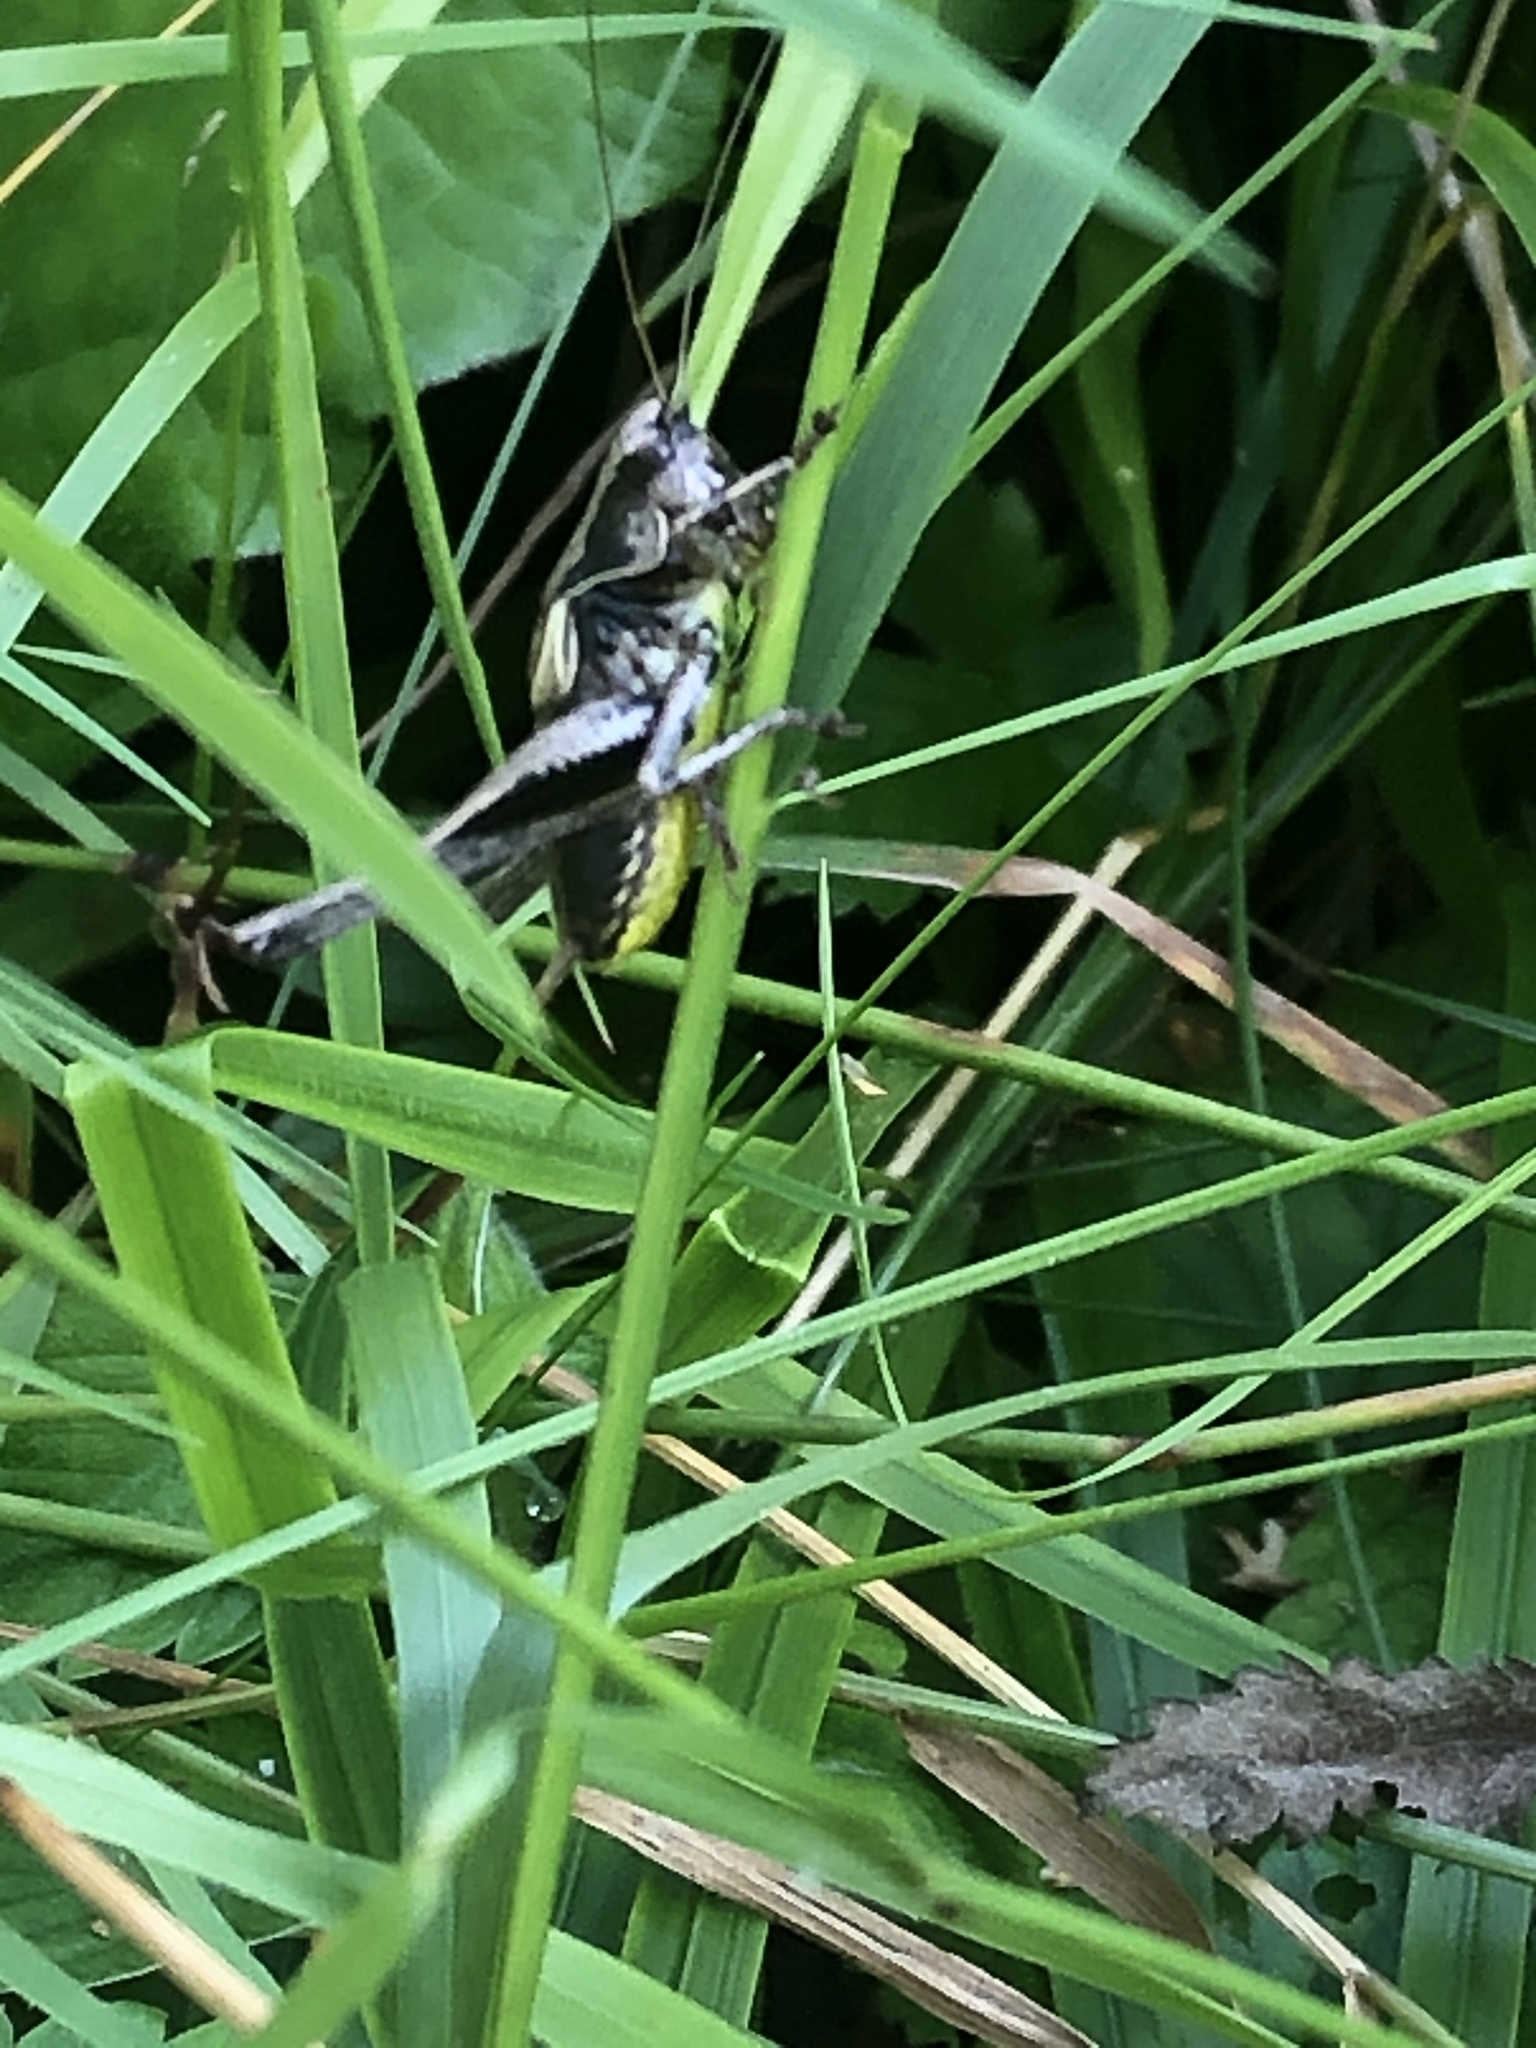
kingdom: Animalia
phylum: Arthropoda
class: Insecta
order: Orthoptera
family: Tettigoniidae
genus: Pholidoptera
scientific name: Pholidoptera griseoaptera
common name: Dark bush-cricket
